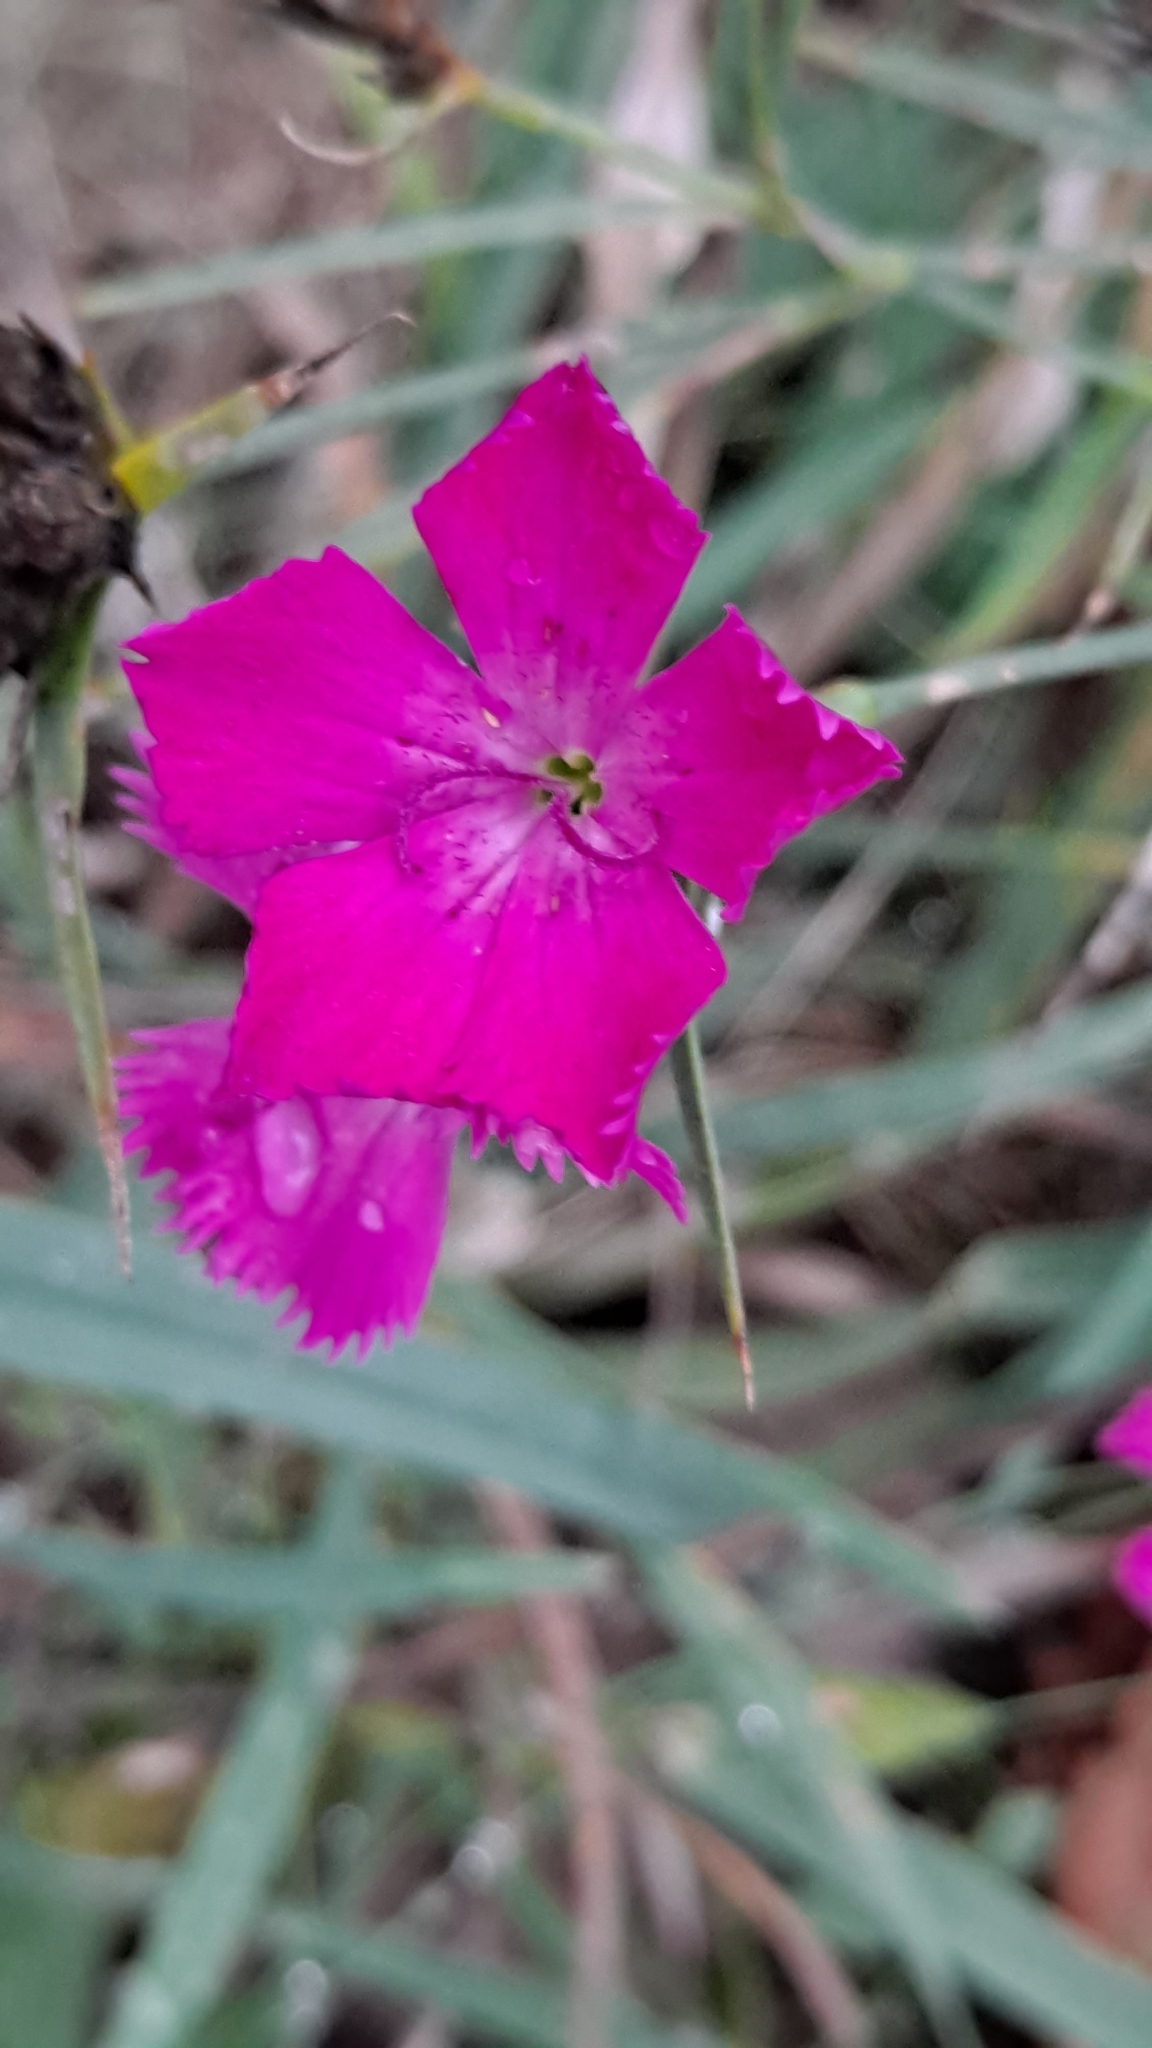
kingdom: Plantae
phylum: Tracheophyta
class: Magnoliopsida
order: Caryophyllales
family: Caryophyllaceae
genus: Dianthus
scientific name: Dianthus carthusianorum
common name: Carthusian pink
